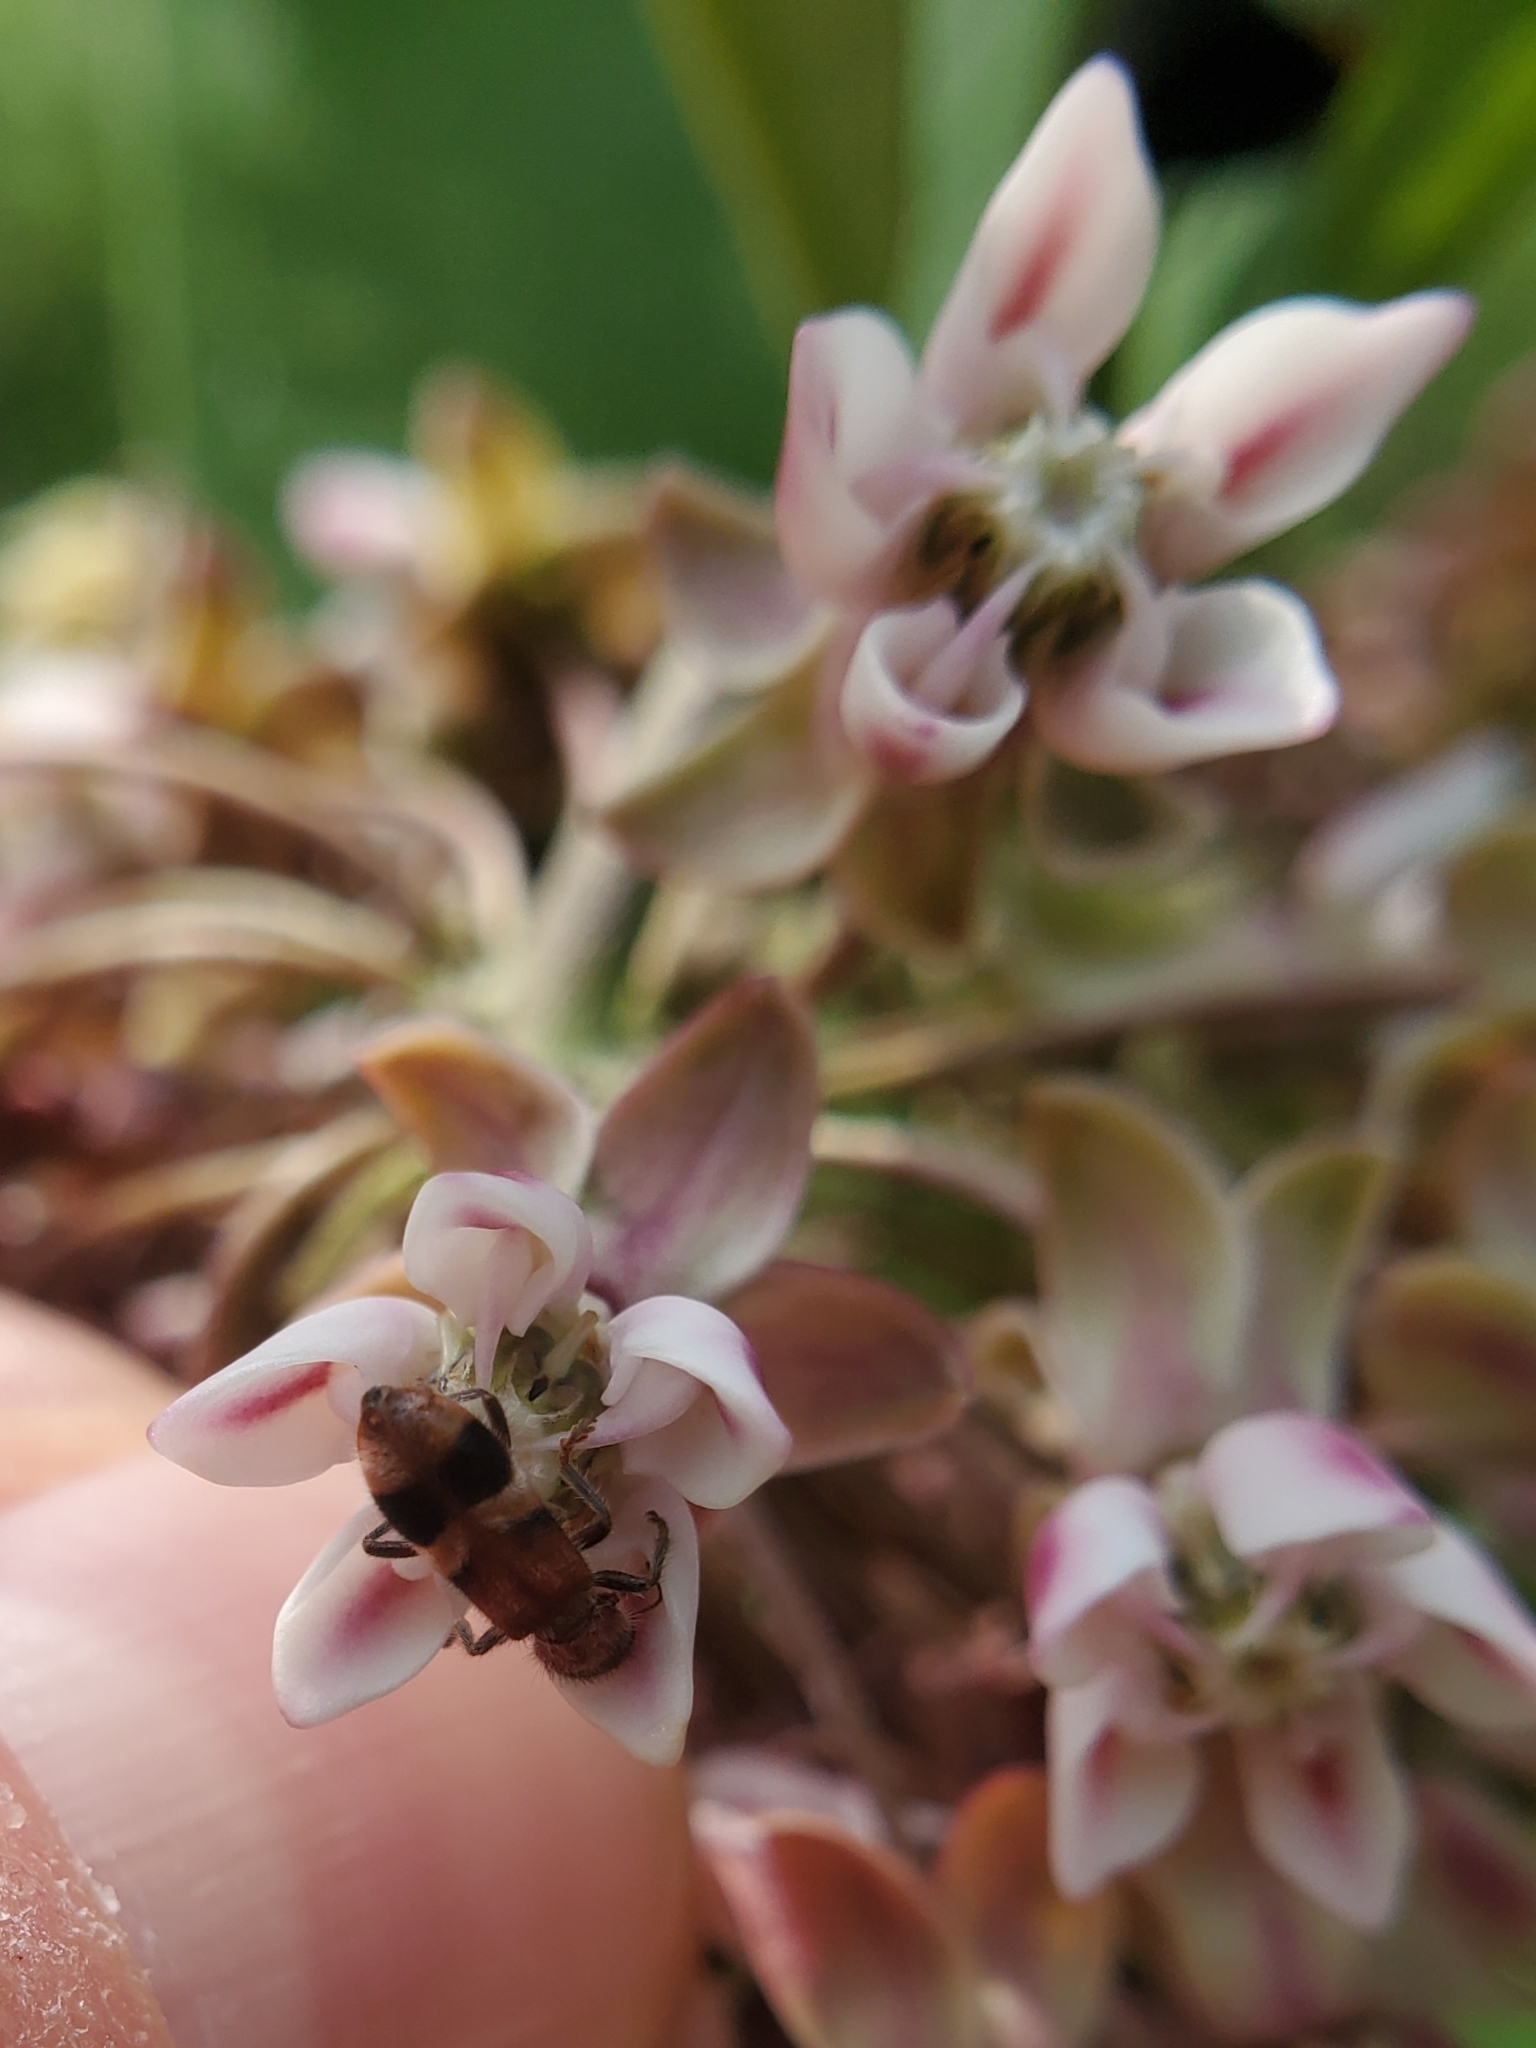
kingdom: Animalia
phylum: Arthropoda
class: Insecta
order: Coleoptera
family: Cleridae
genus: Enoclerus
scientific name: Enoclerus rosmarus
